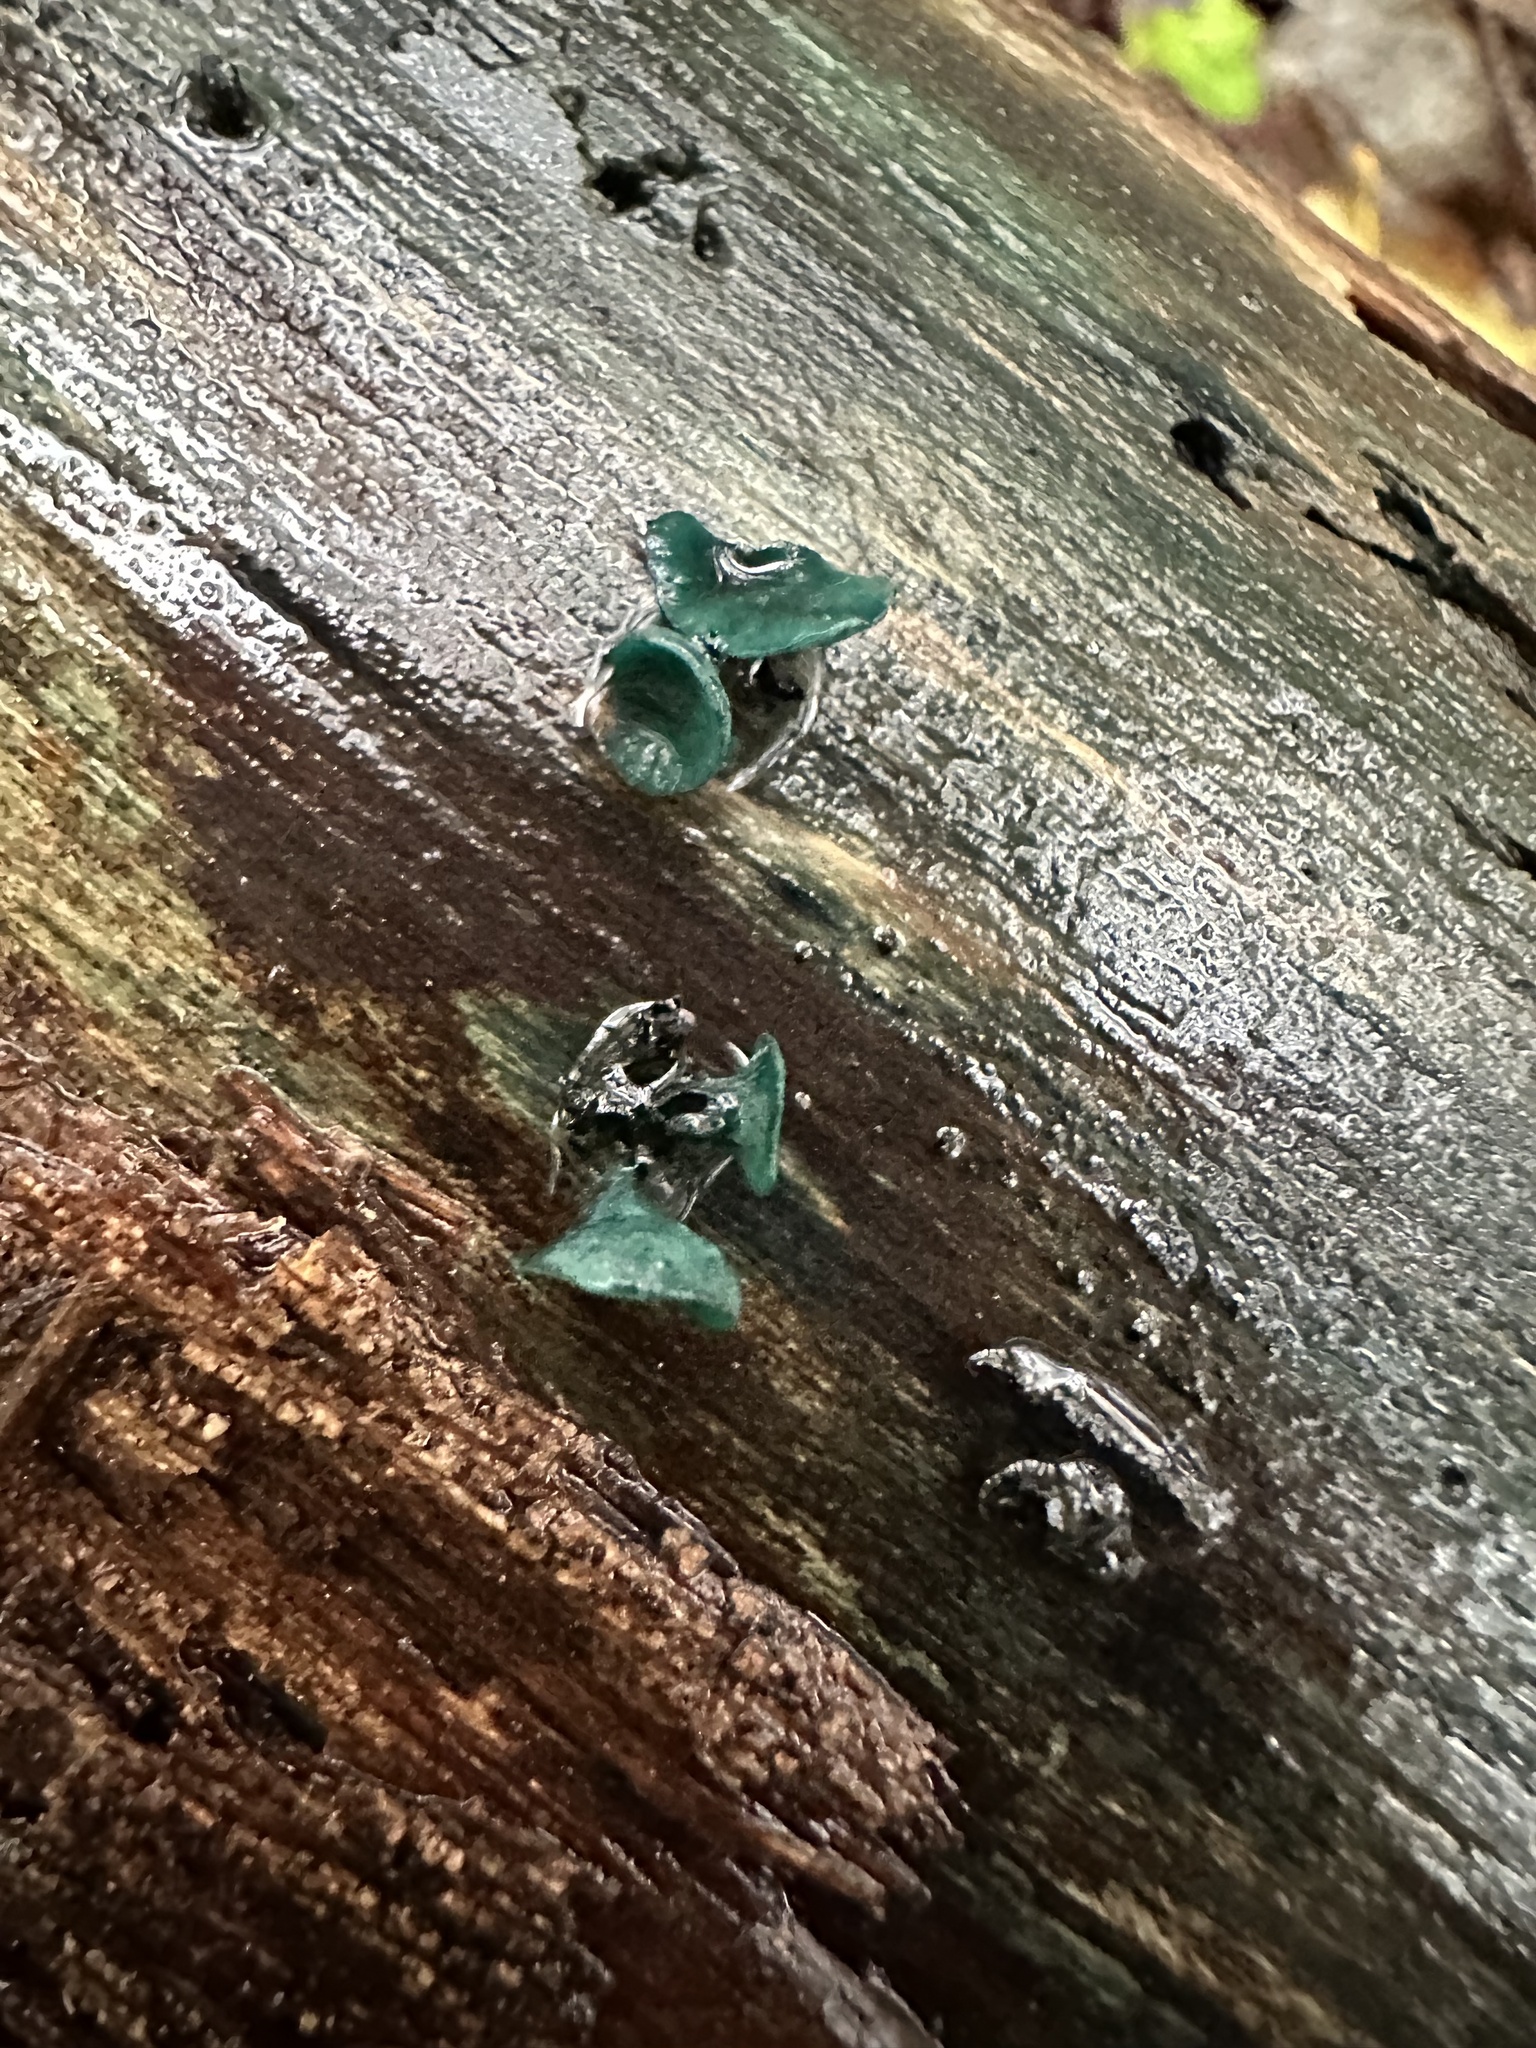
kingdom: Fungi
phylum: Ascomycota
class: Leotiomycetes
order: Helotiales
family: Chlorociboriaceae
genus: Chlorociboria
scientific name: Chlorociboria aeruginascens
